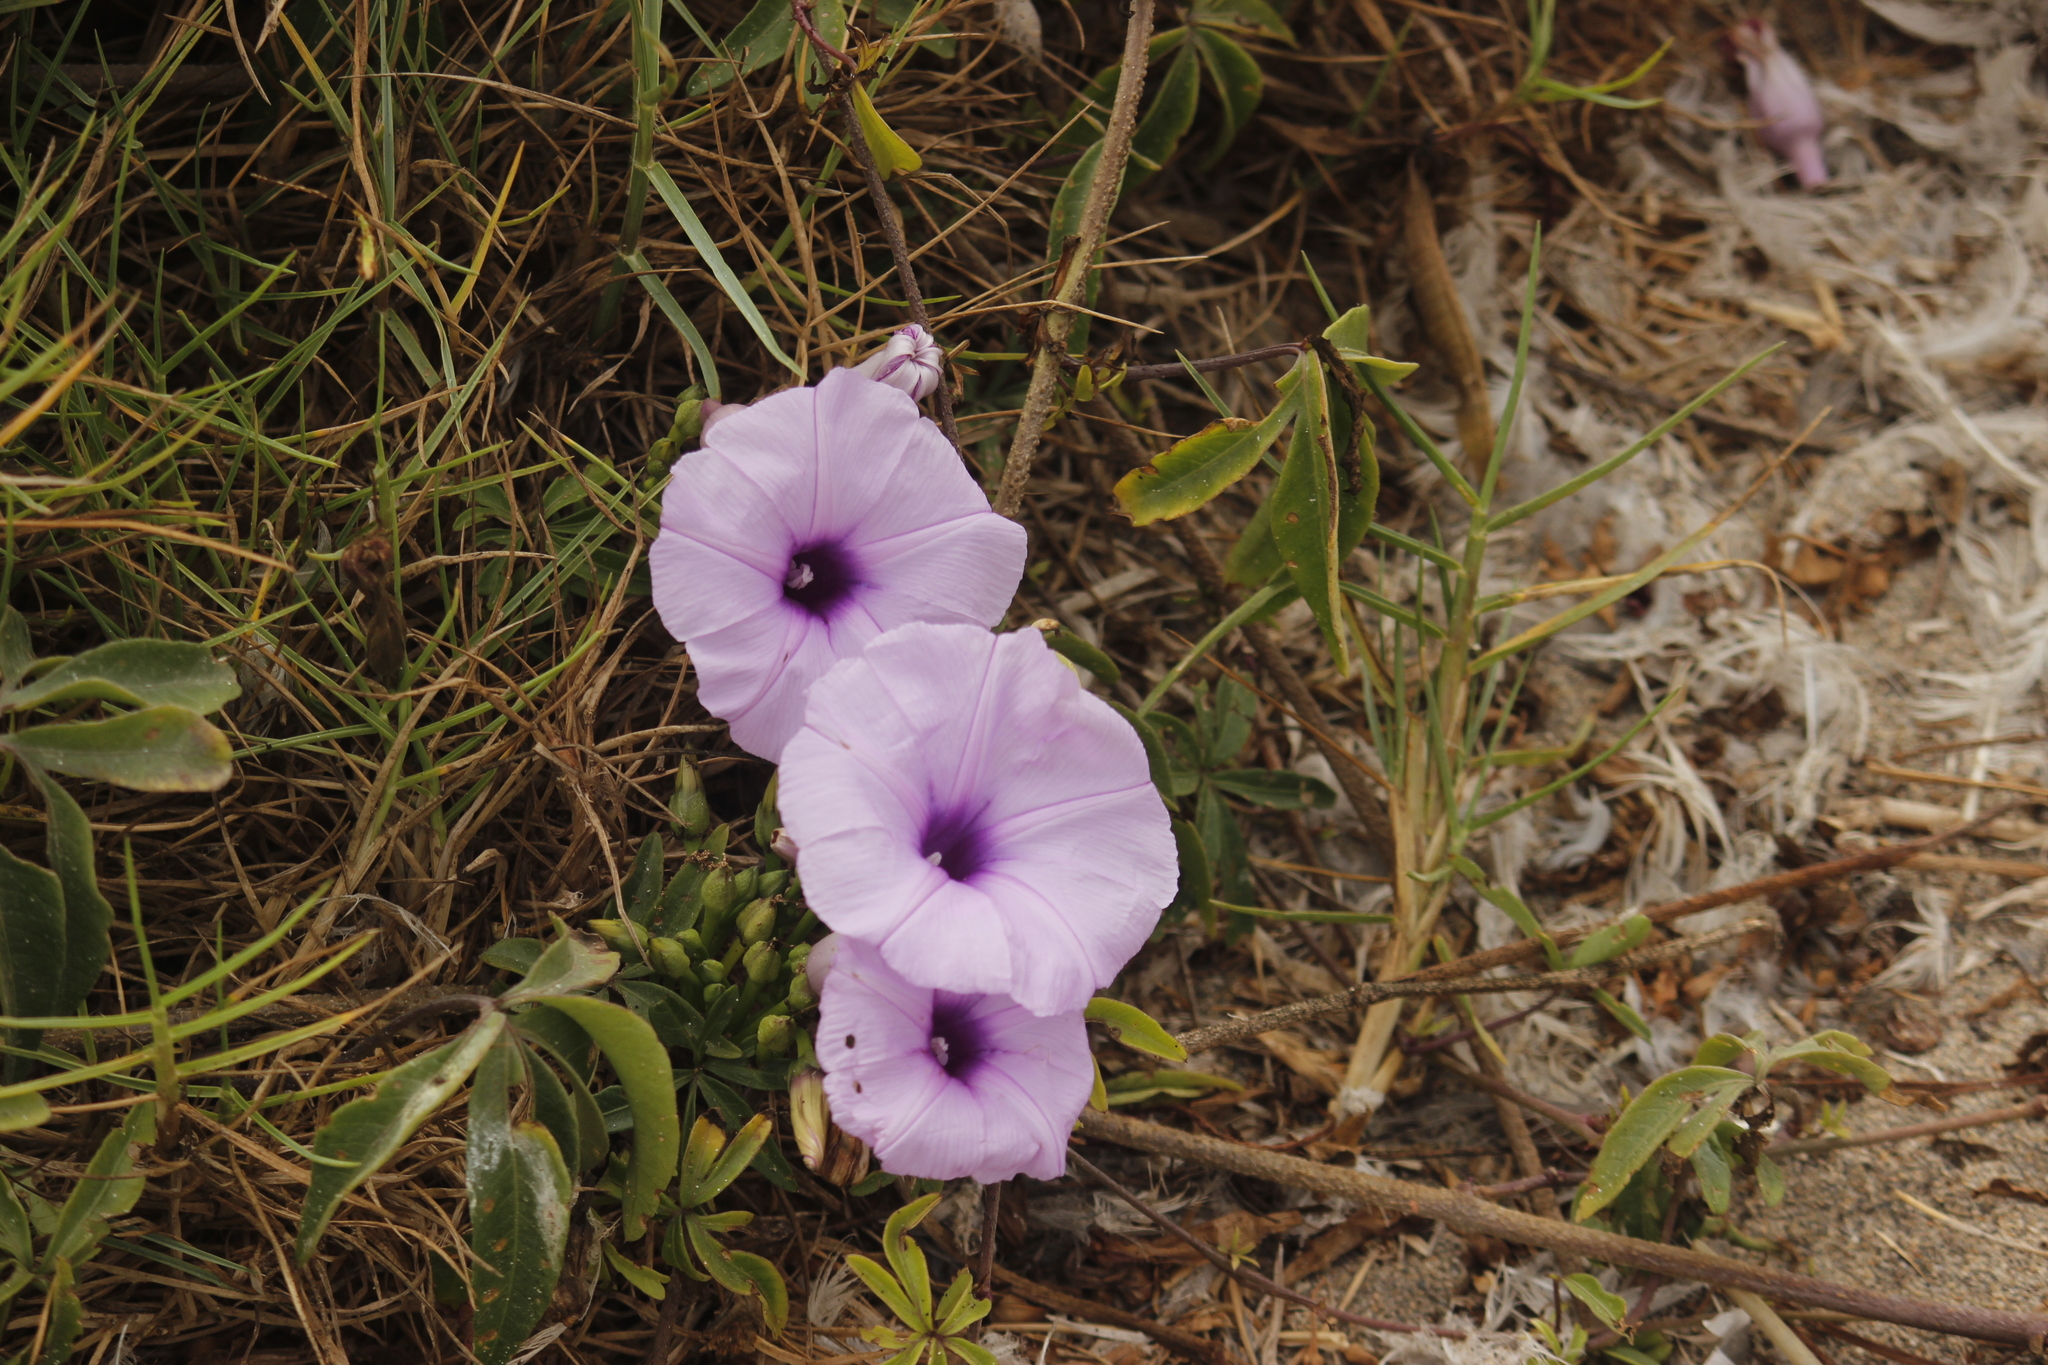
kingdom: Plantae
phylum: Tracheophyta
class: Magnoliopsida
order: Solanales
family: Convolvulaceae
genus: Ipomoea
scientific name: Ipomoea cairica
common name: Mile a minute vine
